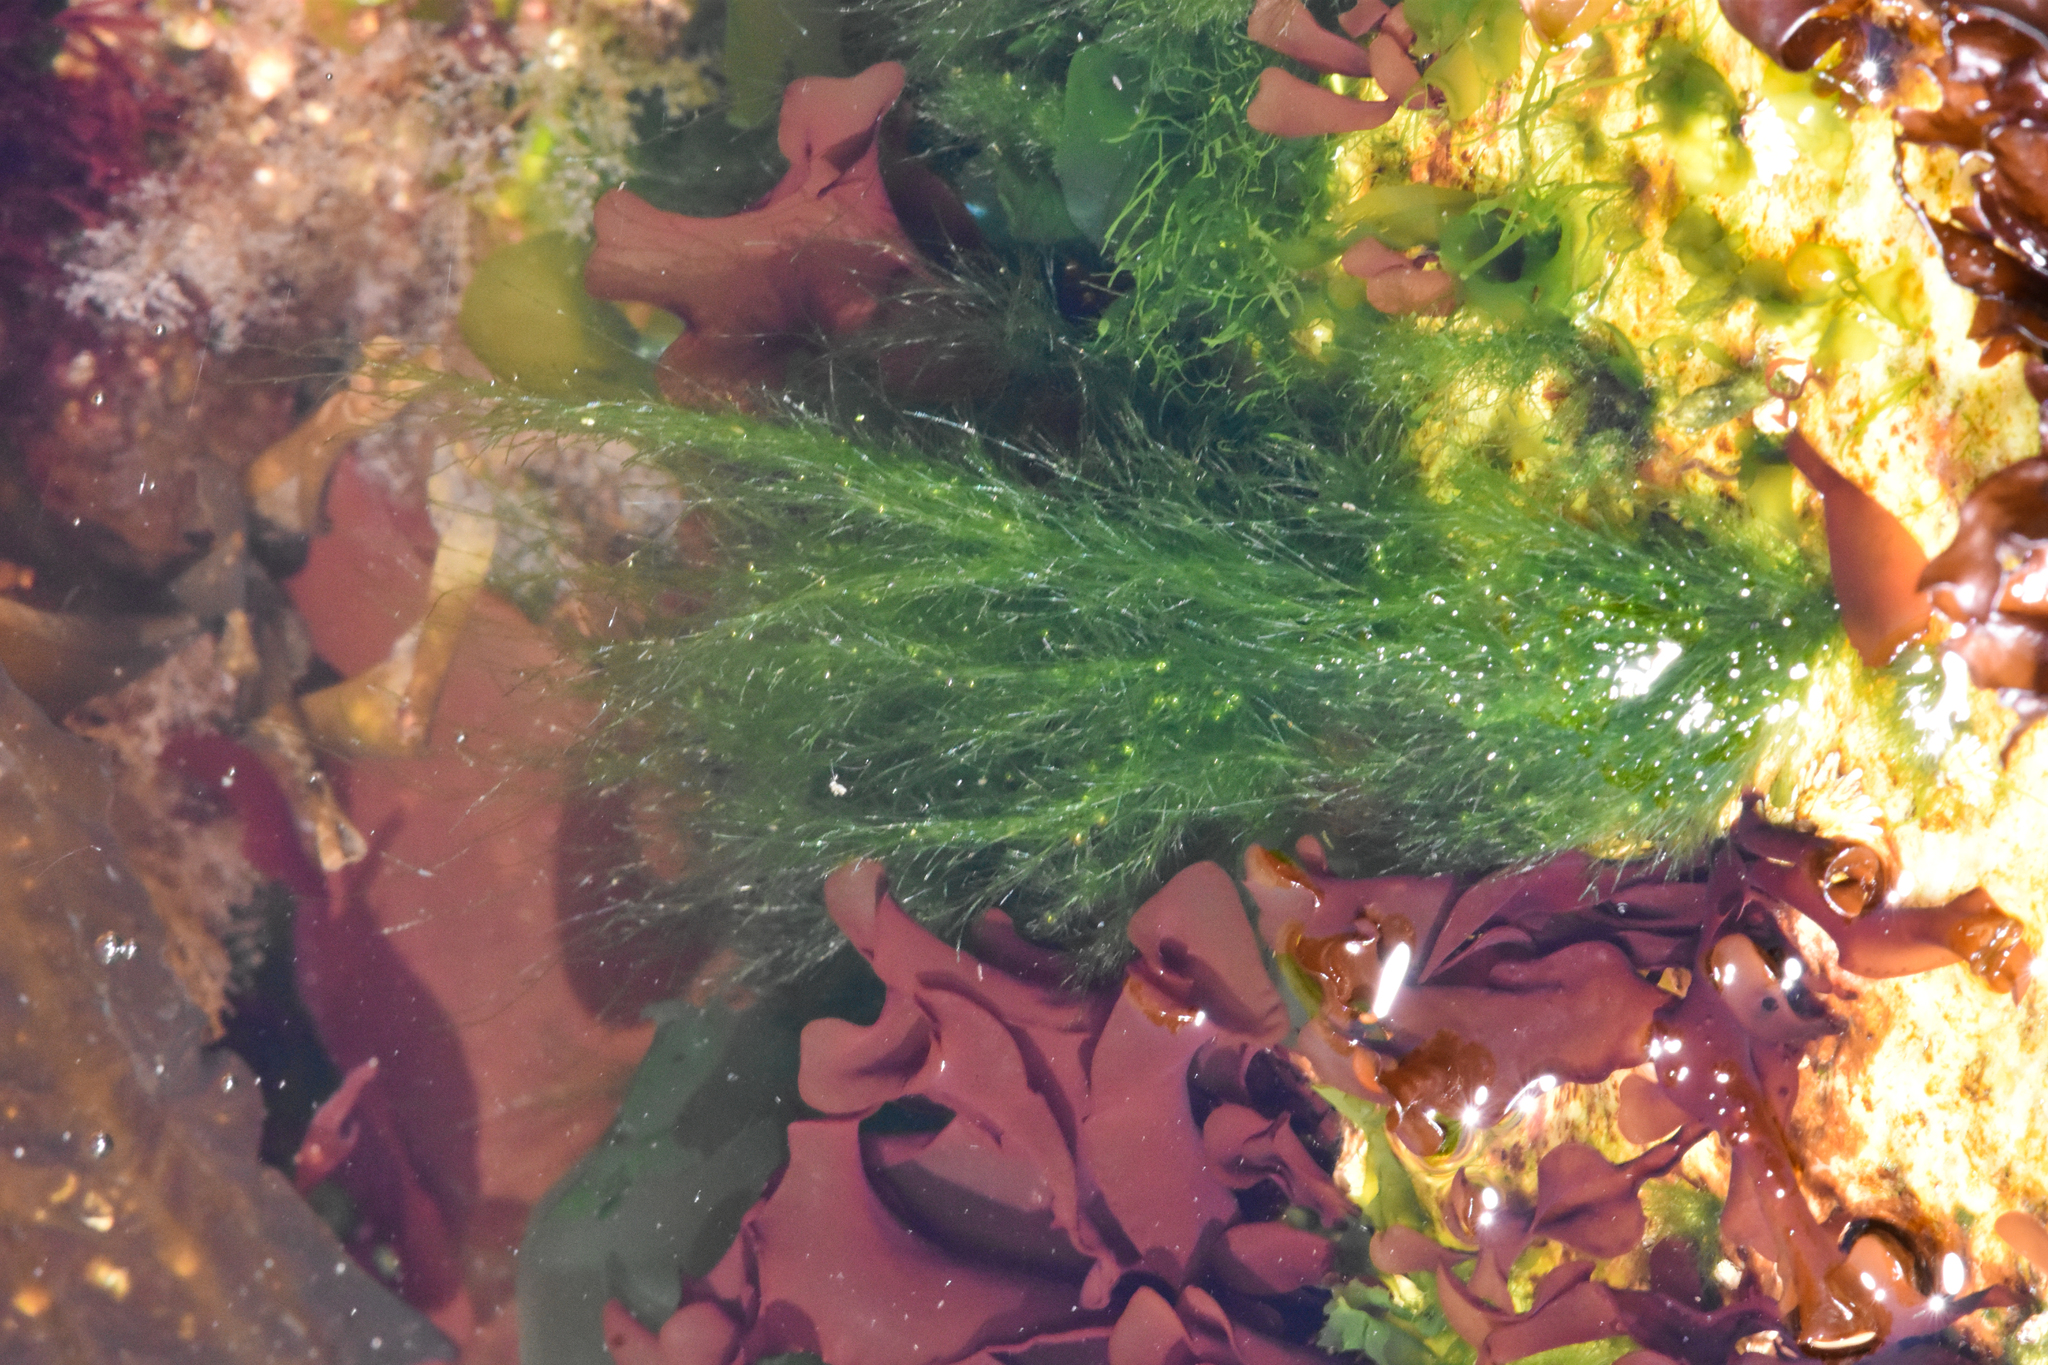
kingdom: Plantae
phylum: Chlorophyta
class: Ulvophyceae
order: Ulotrichales
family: Ulotrichaceae
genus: Acrosiphonia
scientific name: Acrosiphonia
